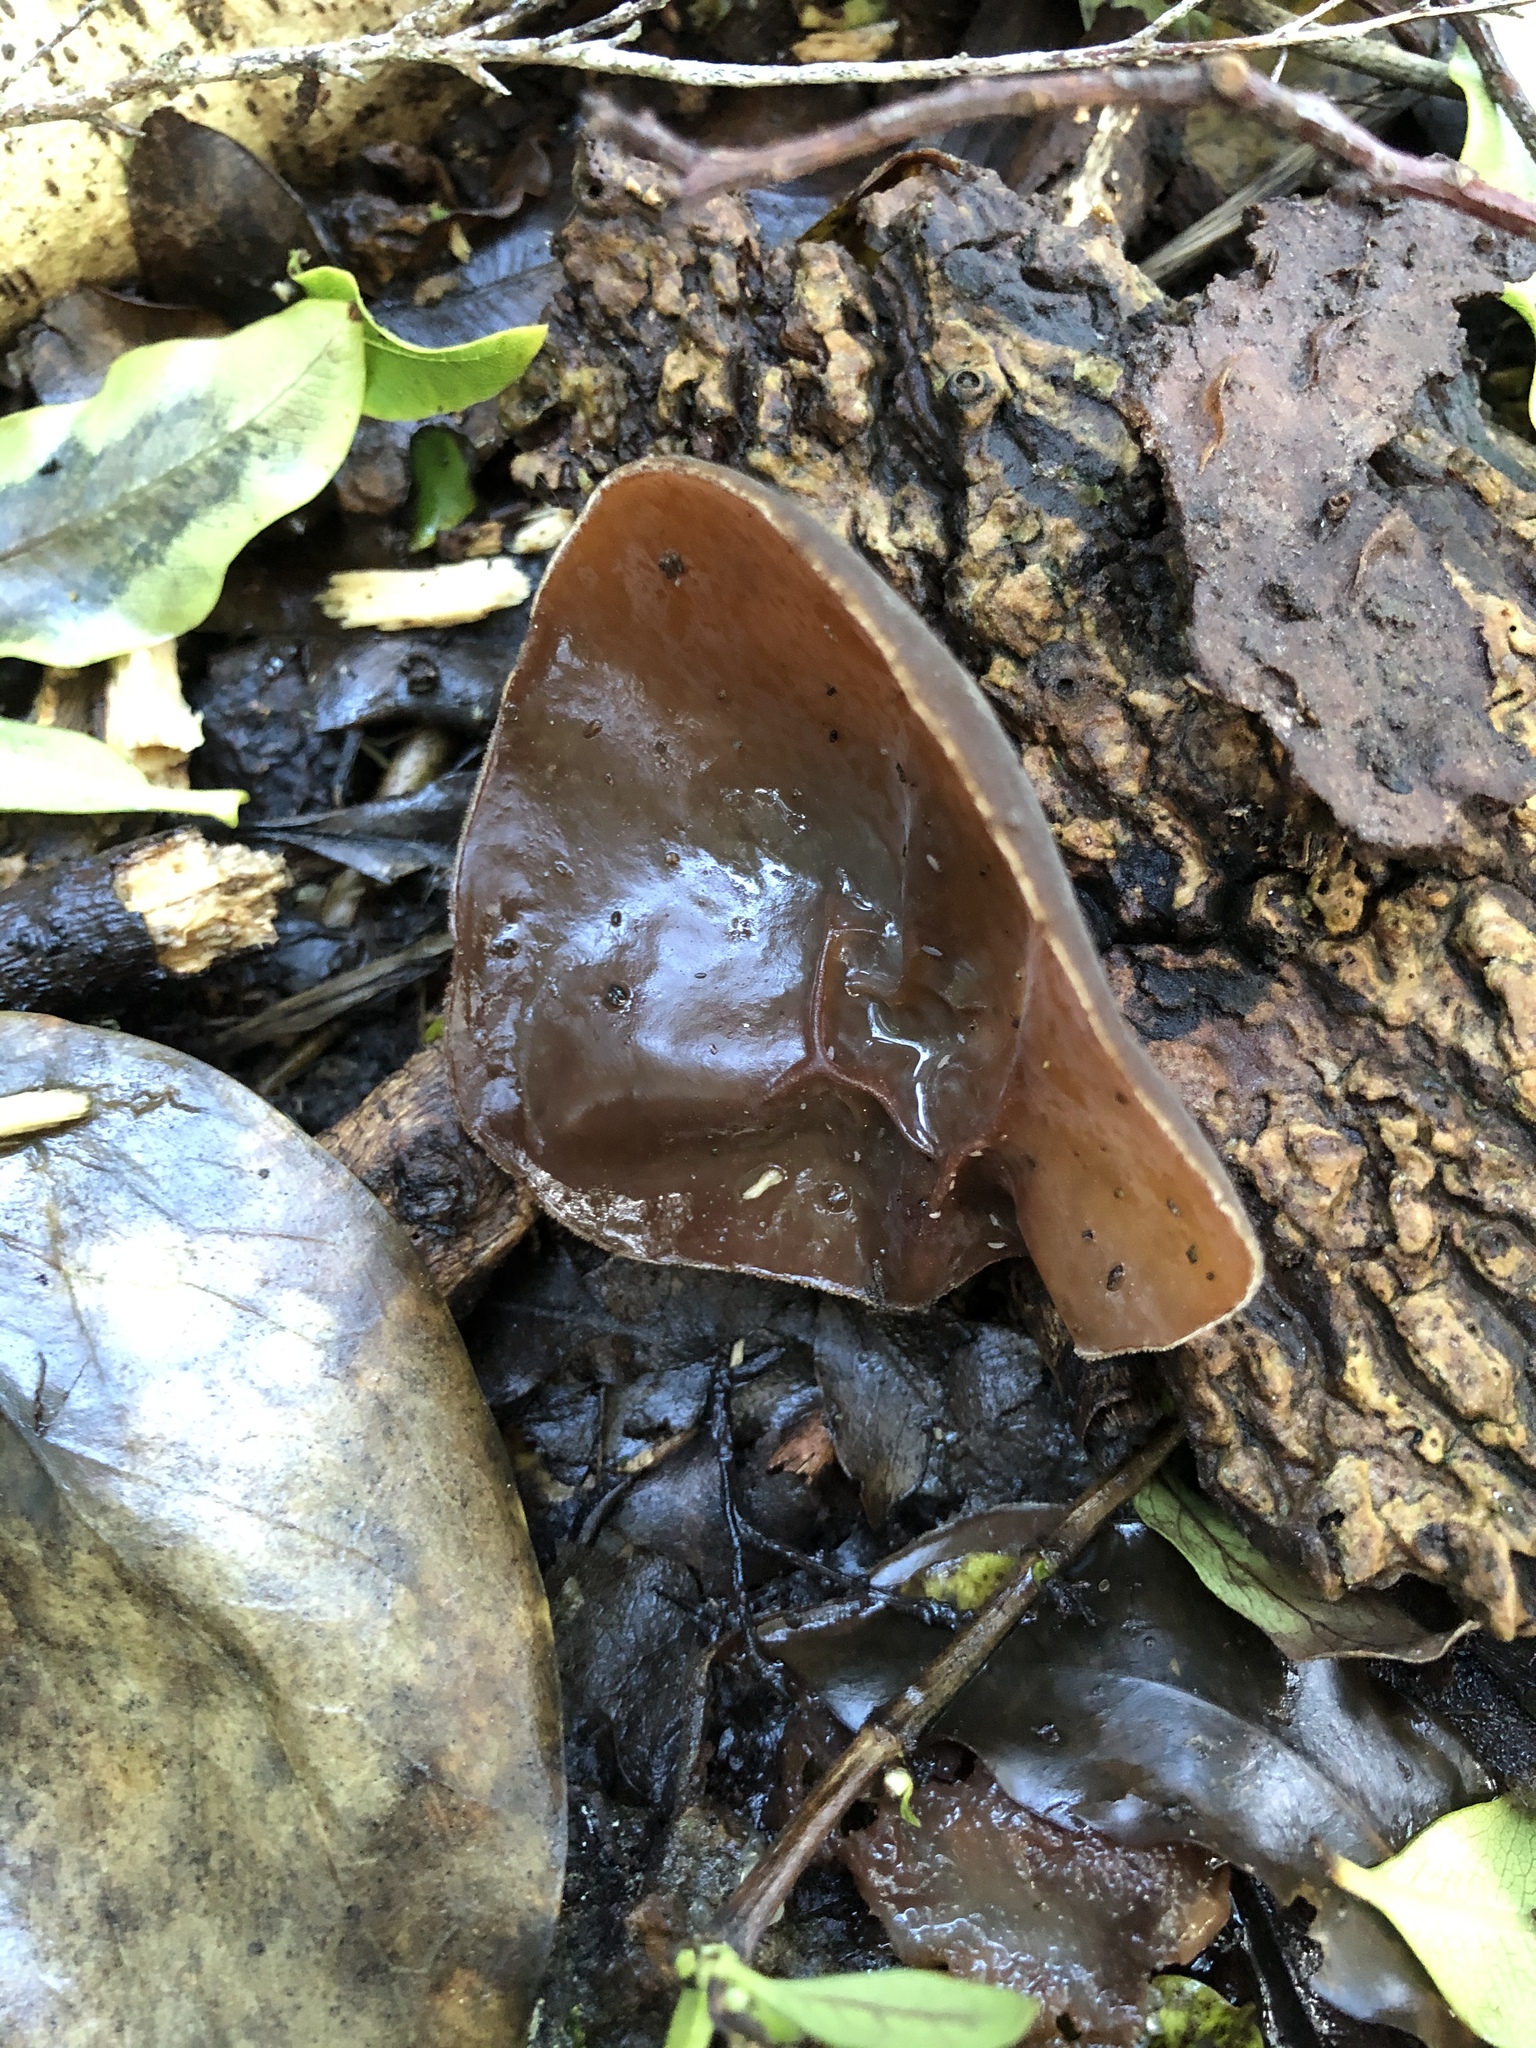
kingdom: Fungi
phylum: Basidiomycota
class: Agaricomycetes
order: Auriculariales
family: Auriculariaceae
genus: Auricularia
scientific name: Auricularia cornea
